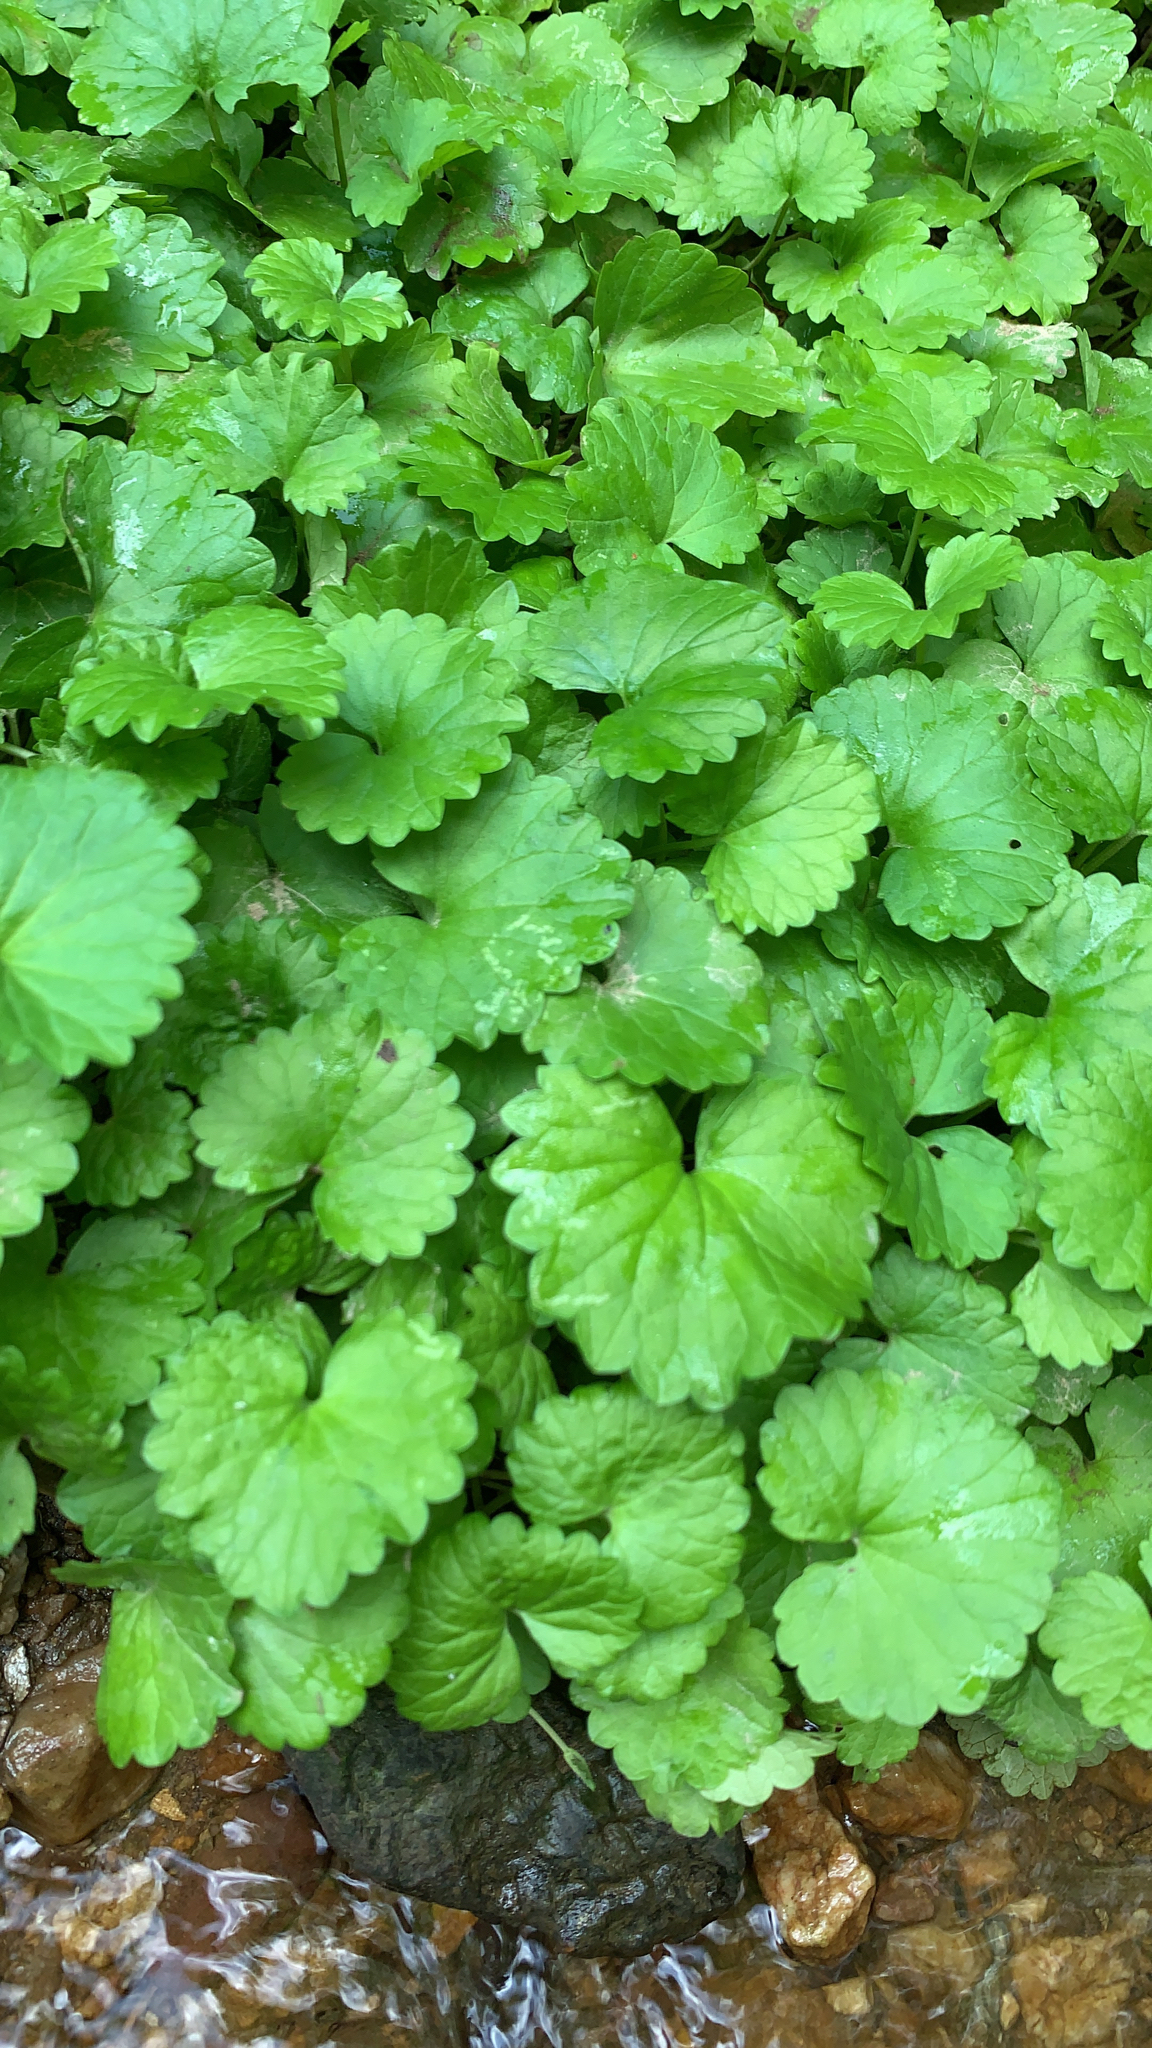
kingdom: Plantae
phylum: Tracheophyta
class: Magnoliopsida
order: Lamiales
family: Lamiaceae
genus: Glechoma
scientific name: Glechoma hederacea
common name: Ground ivy
